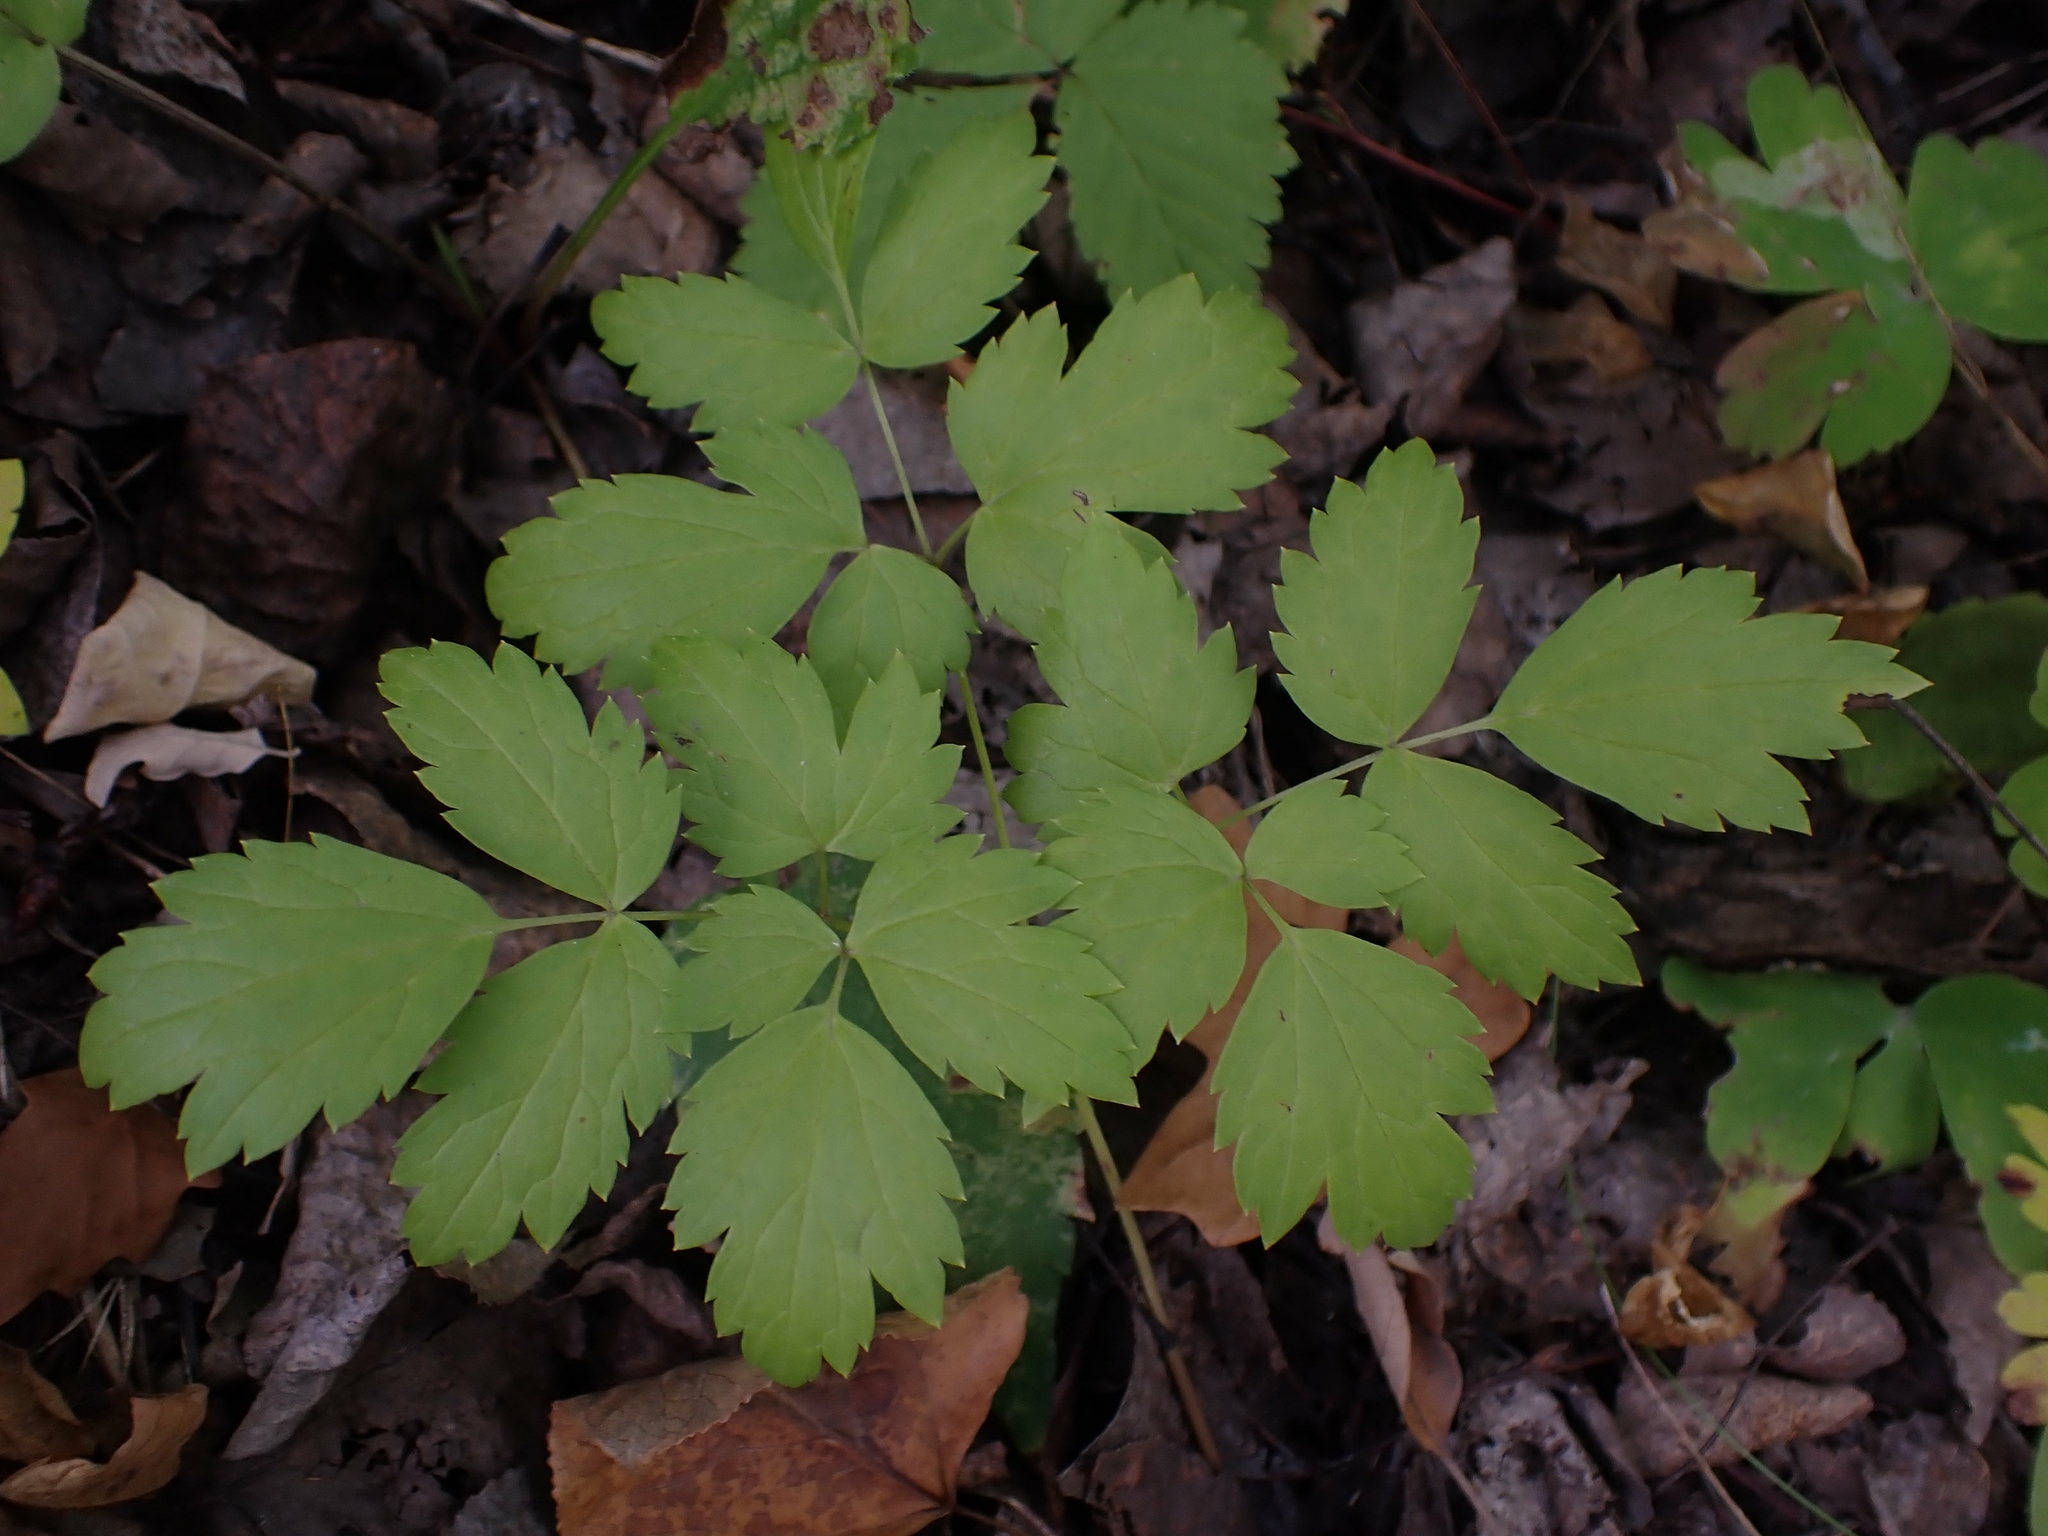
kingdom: Plantae
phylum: Tracheophyta
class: Magnoliopsida
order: Ranunculales
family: Ranunculaceae
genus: Actaea
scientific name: Actaea rubra
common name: Red baneberry
